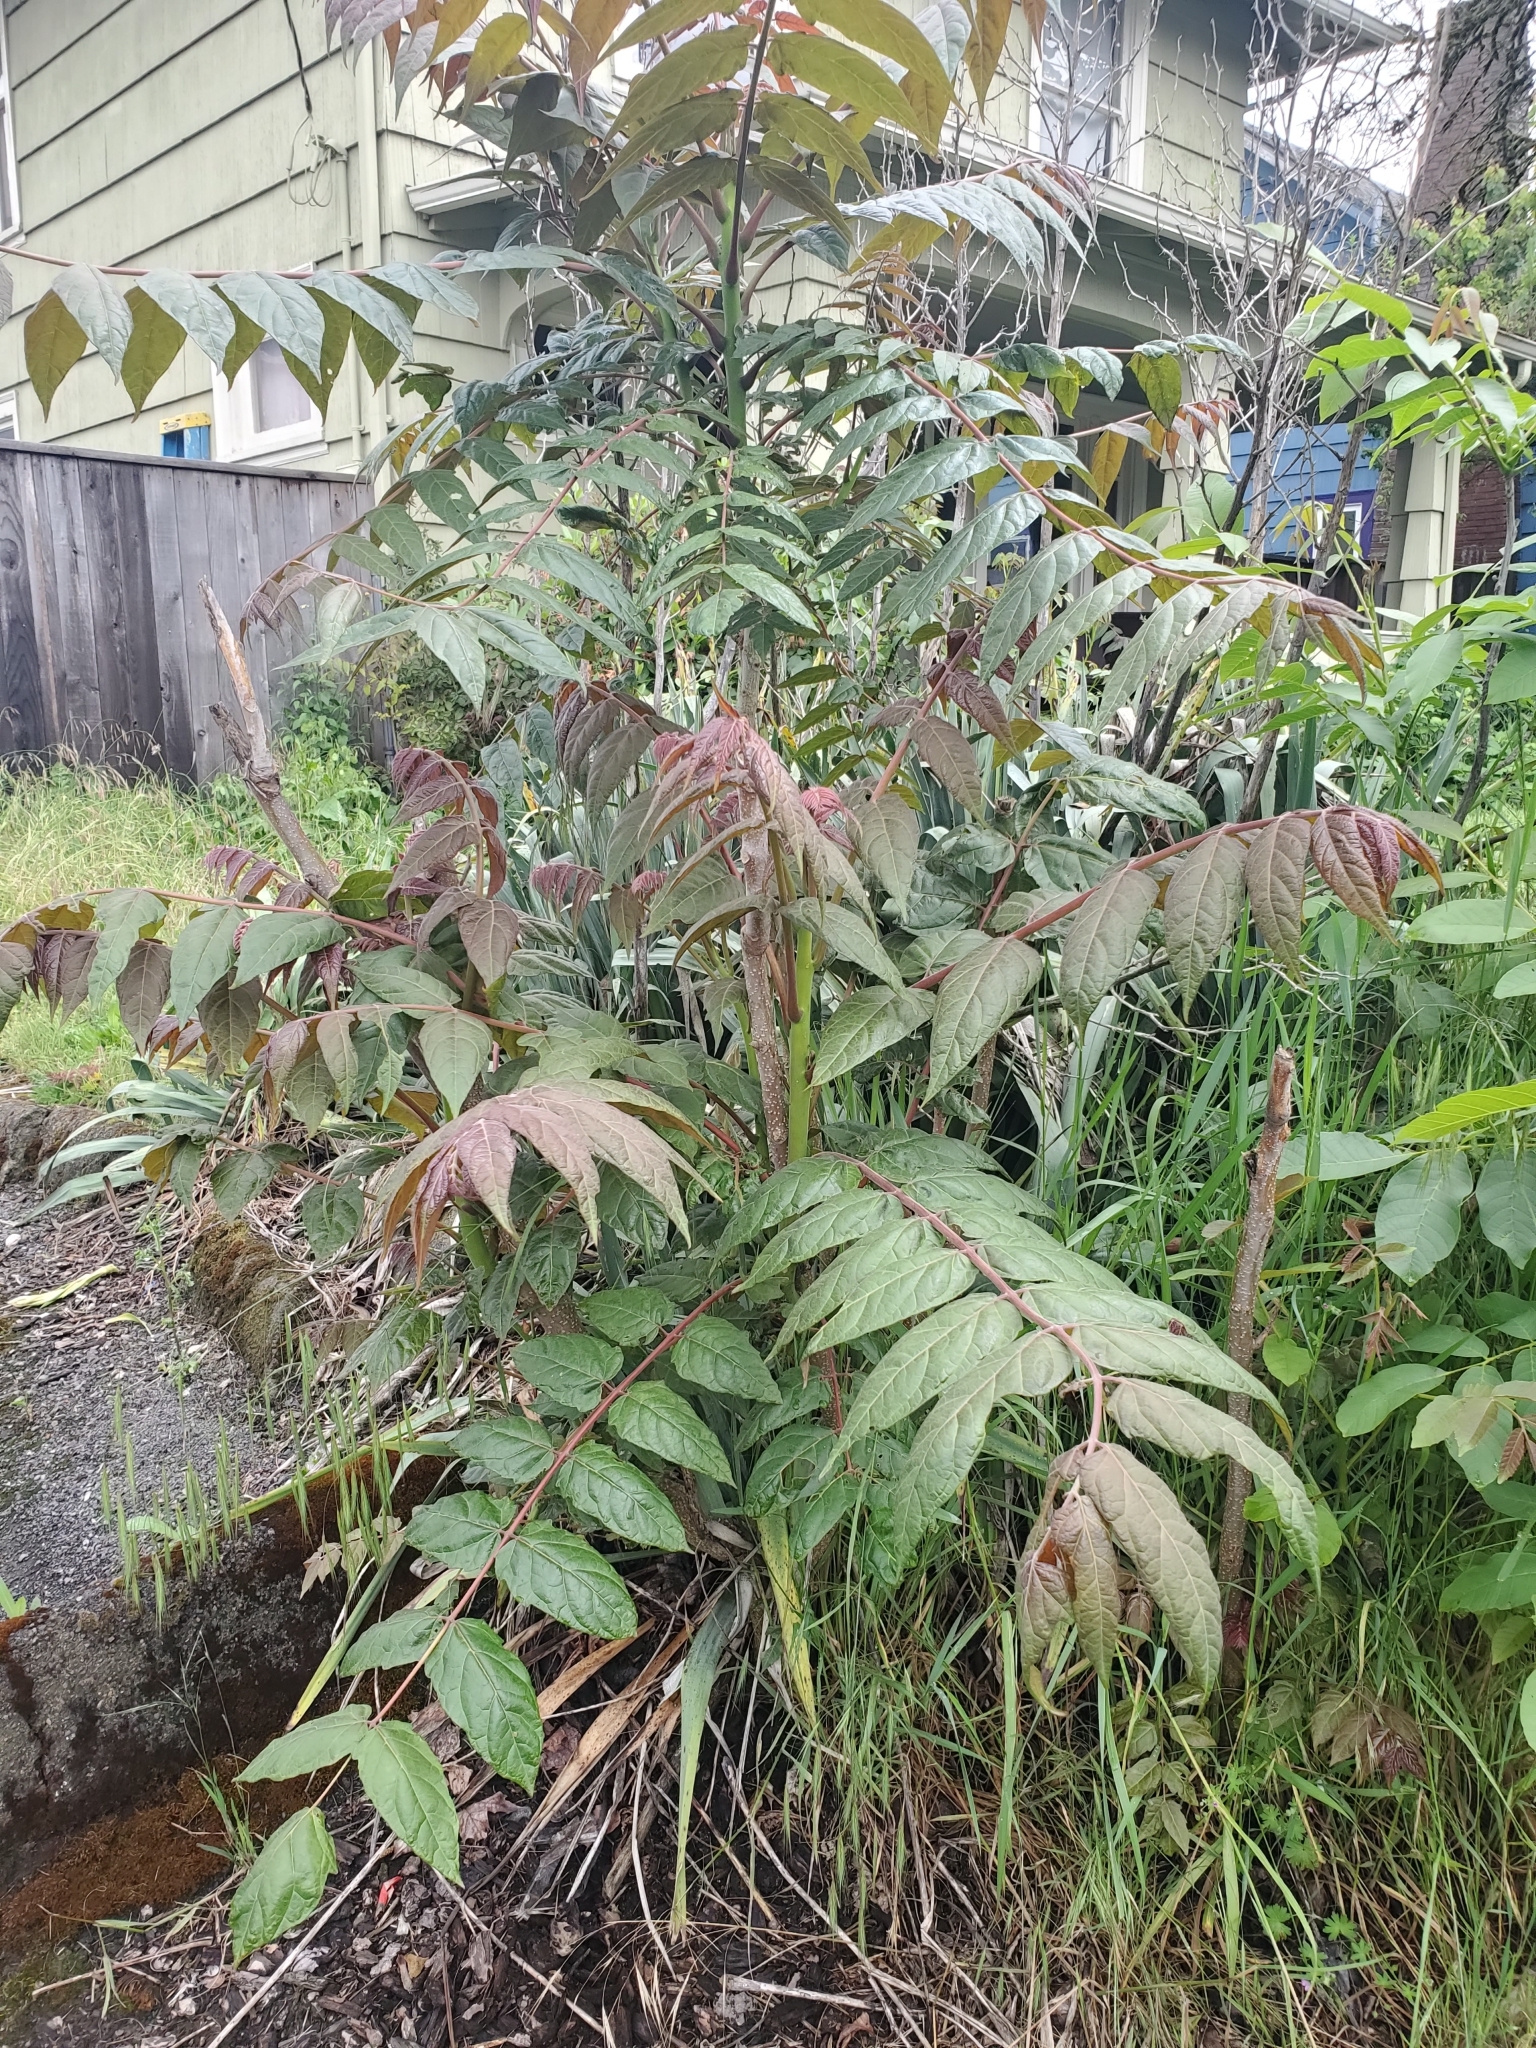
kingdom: Plantae
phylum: Tracheophyta
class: Magnoliopsida
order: Sapindales
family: Simaroubaceae
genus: Ailanthus
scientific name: Ailanthus altissima
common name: Tree-of-heaven
